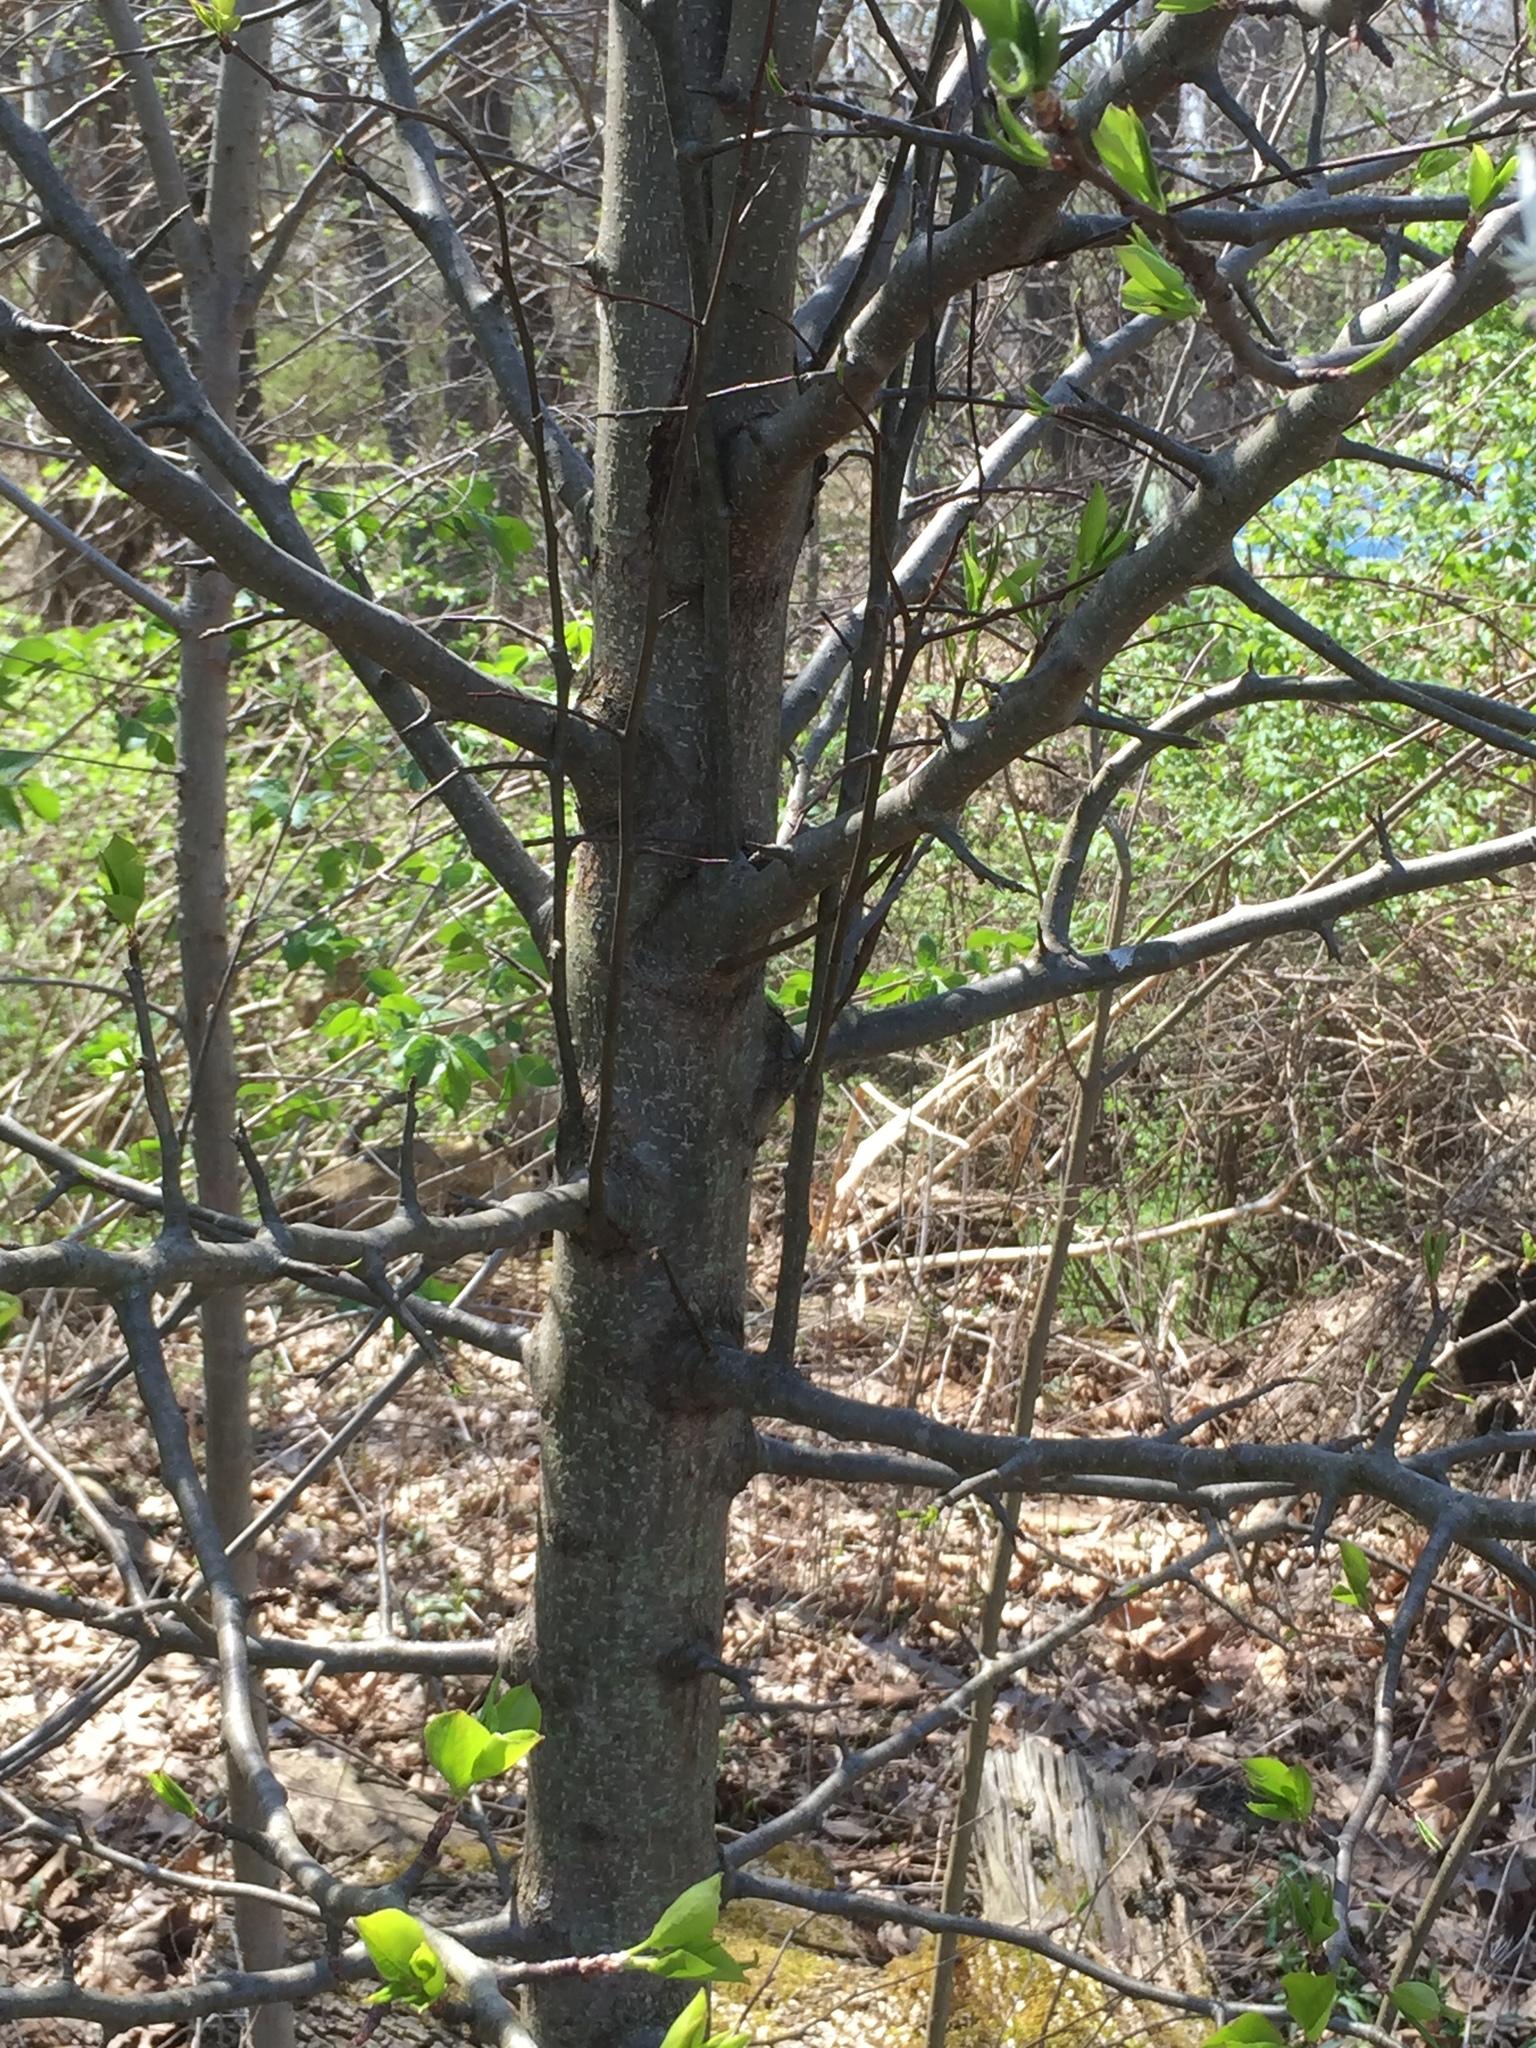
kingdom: Plantae
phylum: Tracheophyta
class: Magnoliopsida
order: Rosales
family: Rosaceae
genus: Pyrus
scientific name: Pyrus calleryana
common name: Callery pear
